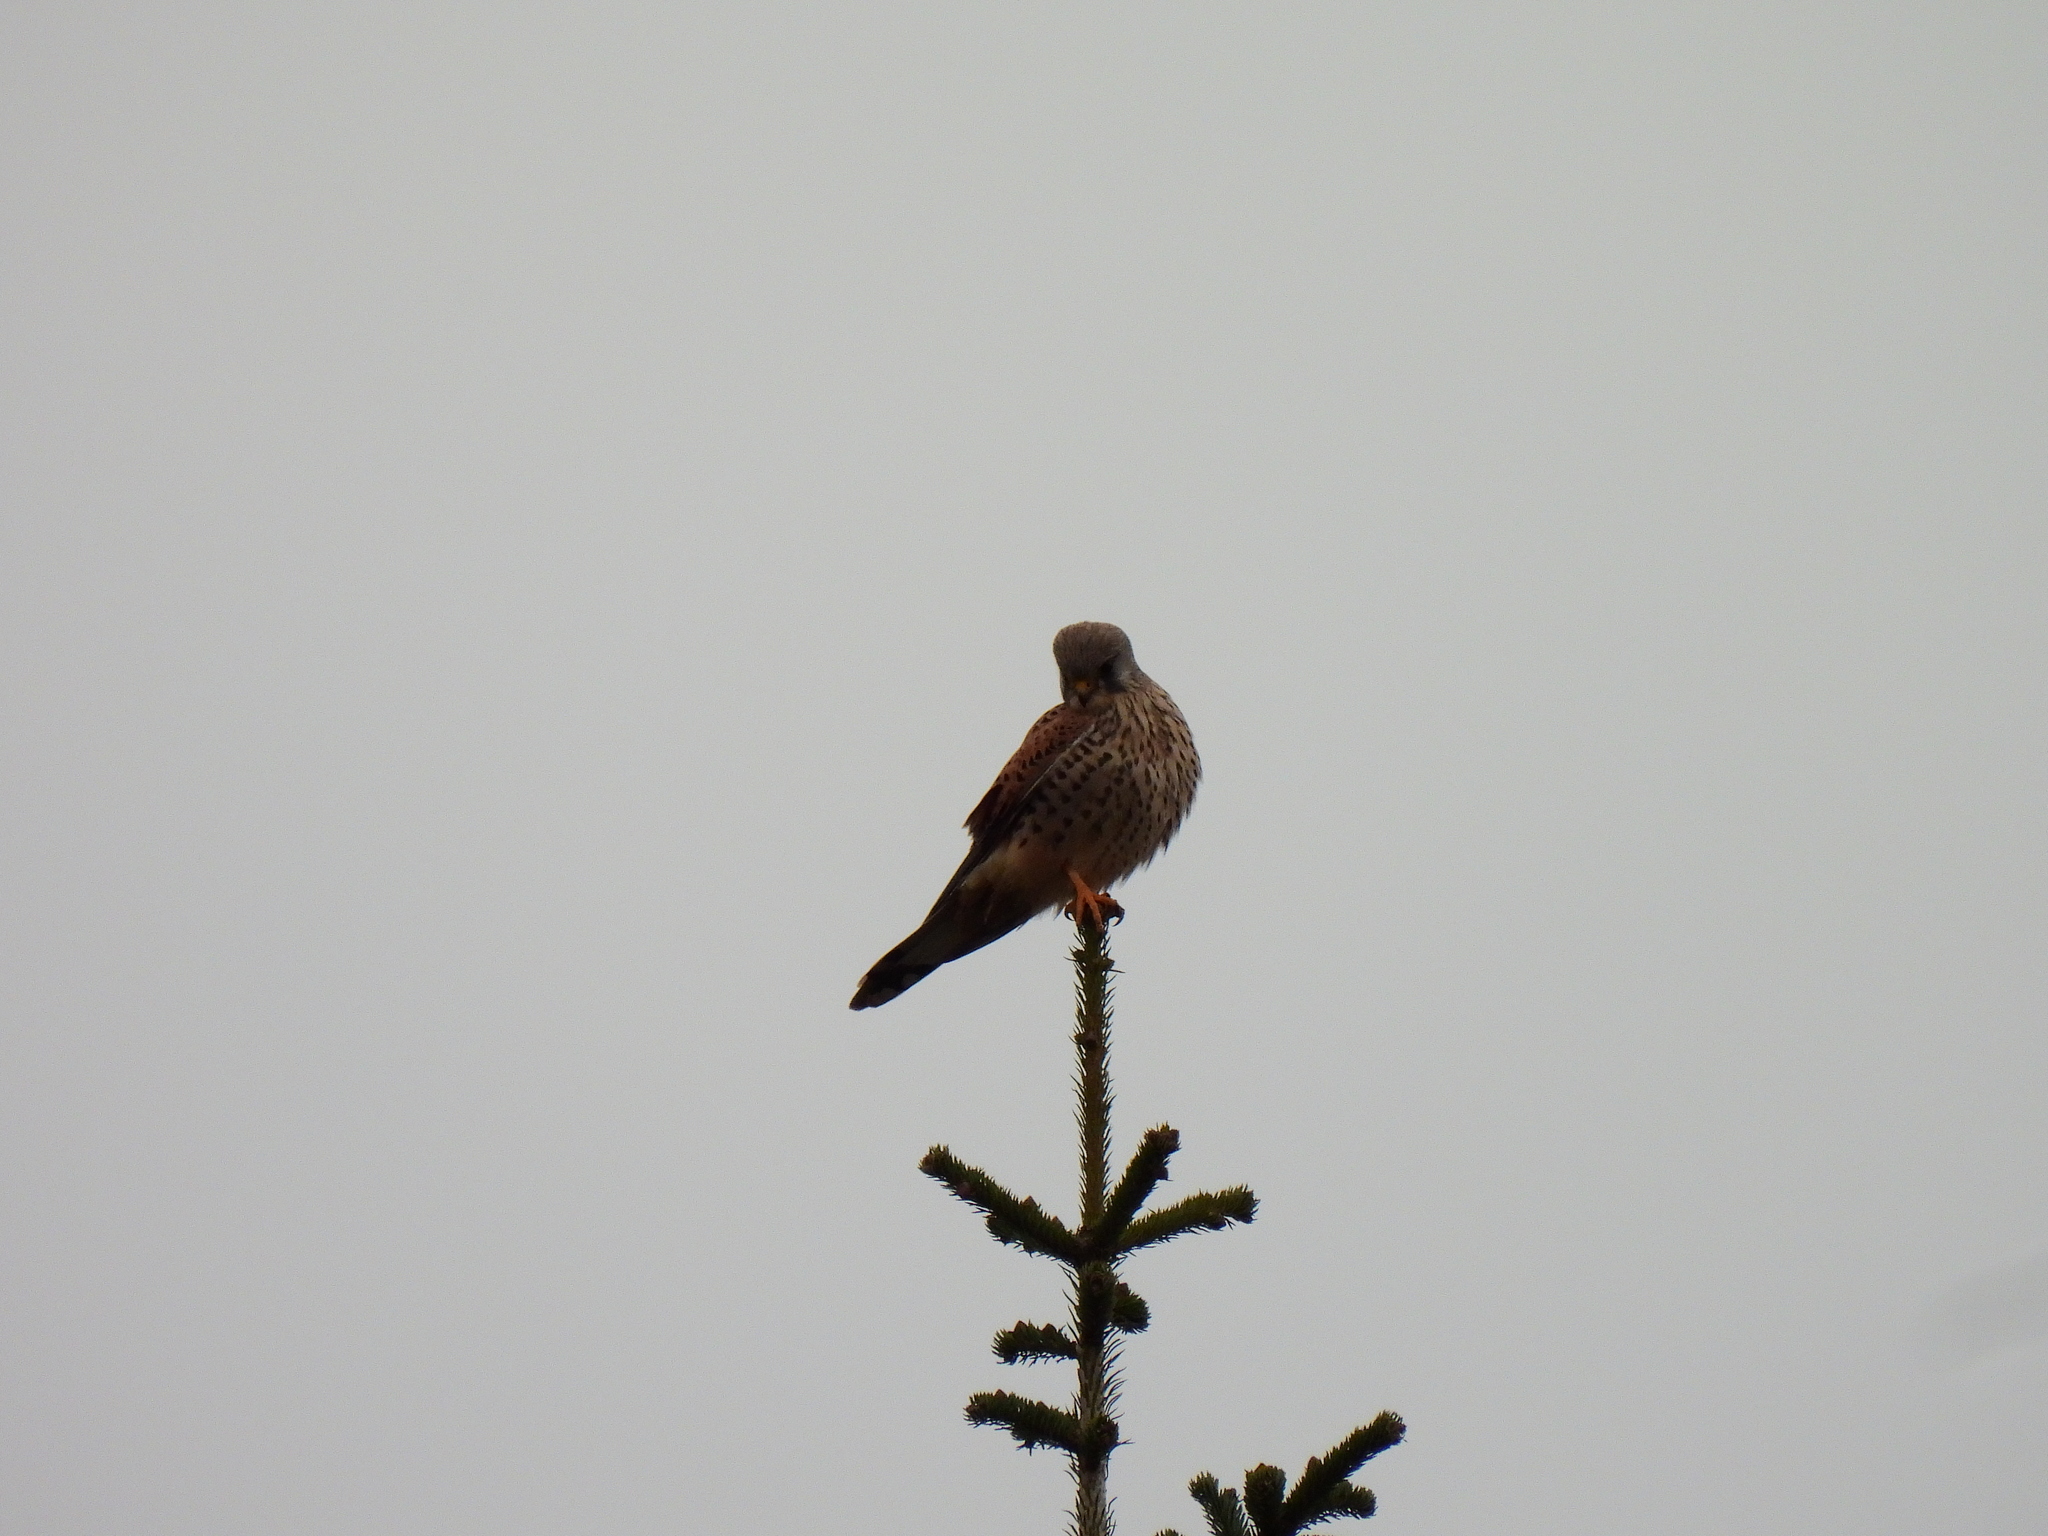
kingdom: Animalia
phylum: Chordata
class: Aves
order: Falconiformes
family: Falconidae
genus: Falco
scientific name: Falco tinnunculus
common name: Common kestrel
